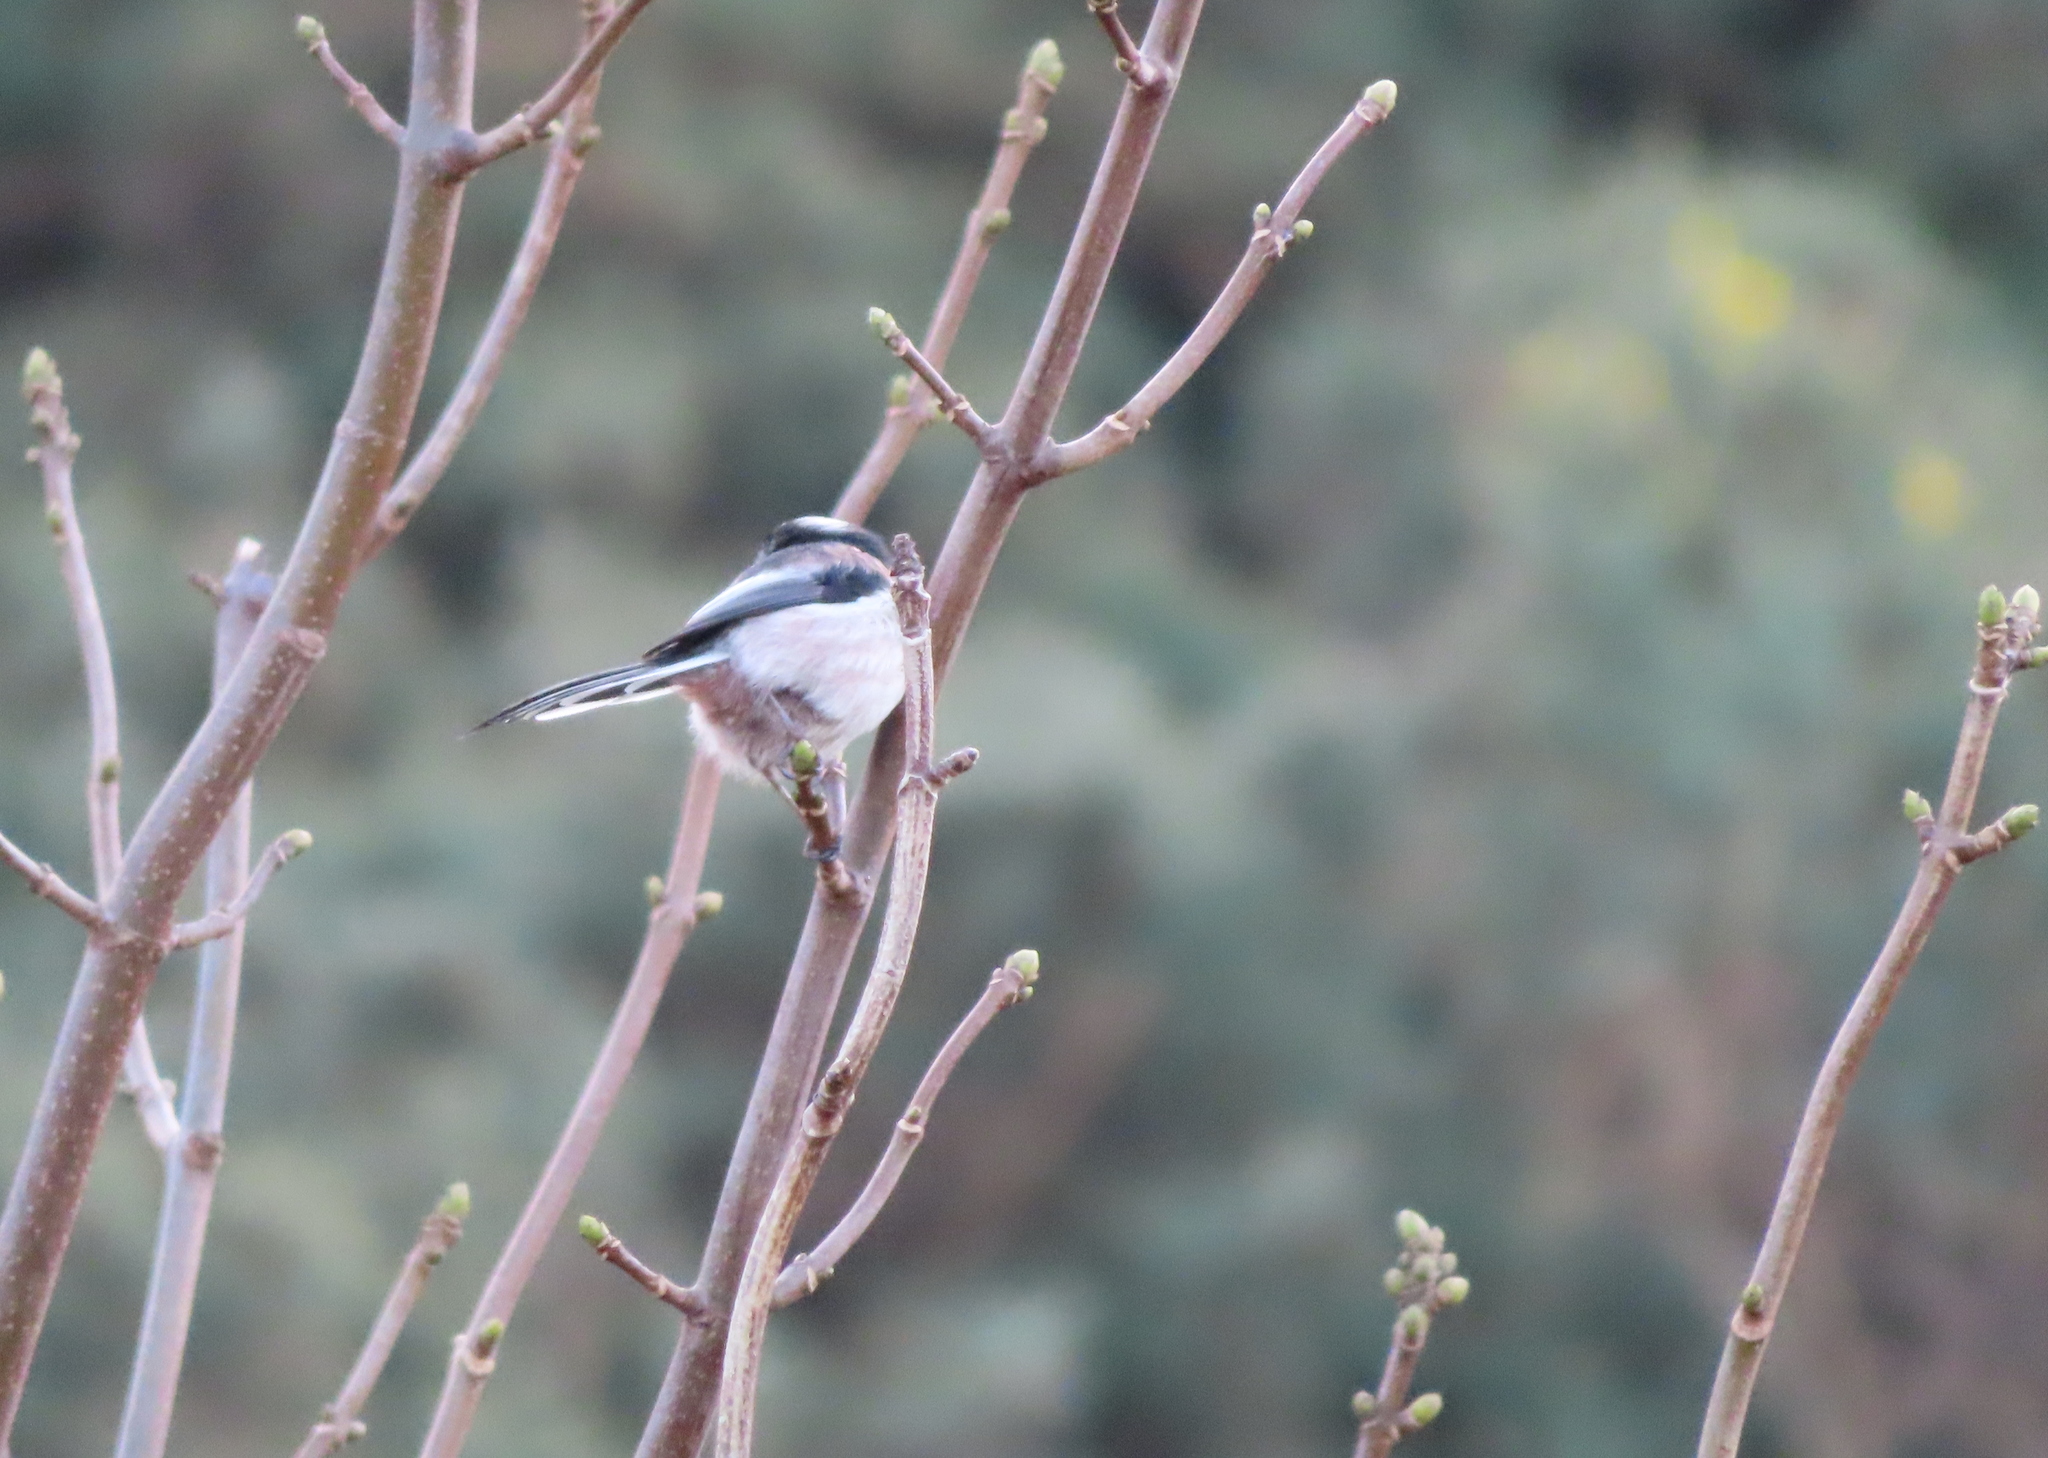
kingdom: Animalia
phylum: Chordata
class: Aves
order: Passeriformes
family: Aegithalidae
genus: Aegithalos
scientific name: Aegithalos caudatus
